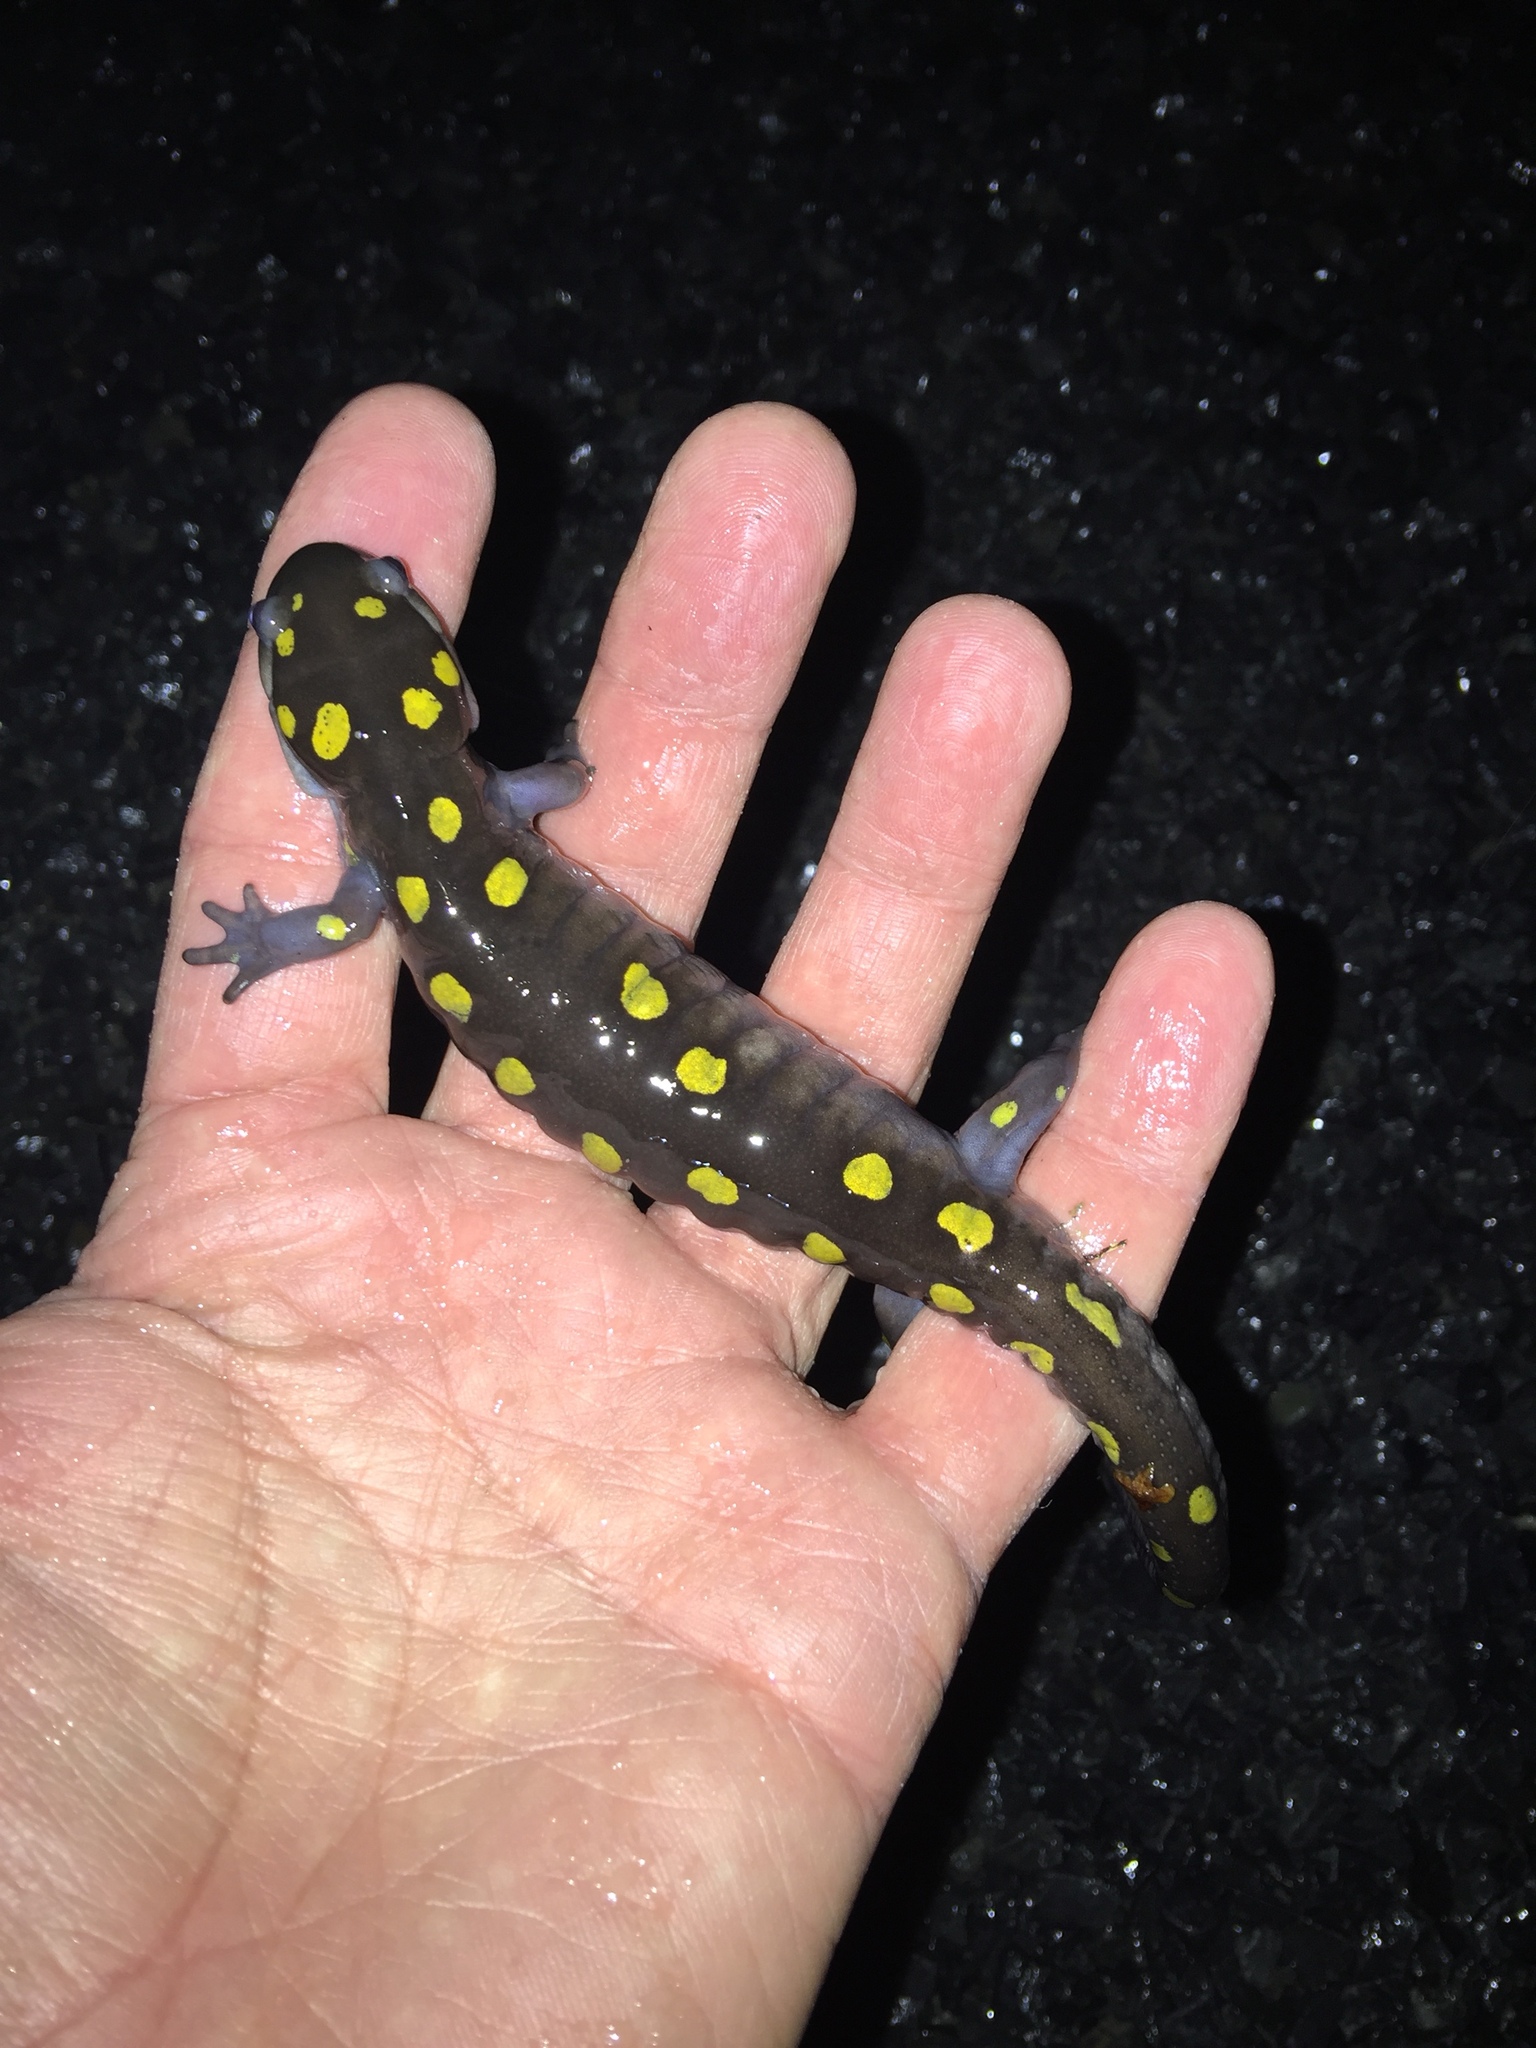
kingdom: Animalia
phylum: Chordata
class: Amphibia
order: Caudata
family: Ambystomatidae
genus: Ambystoma
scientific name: Ambystoma maculatum
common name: Spotted salamander
